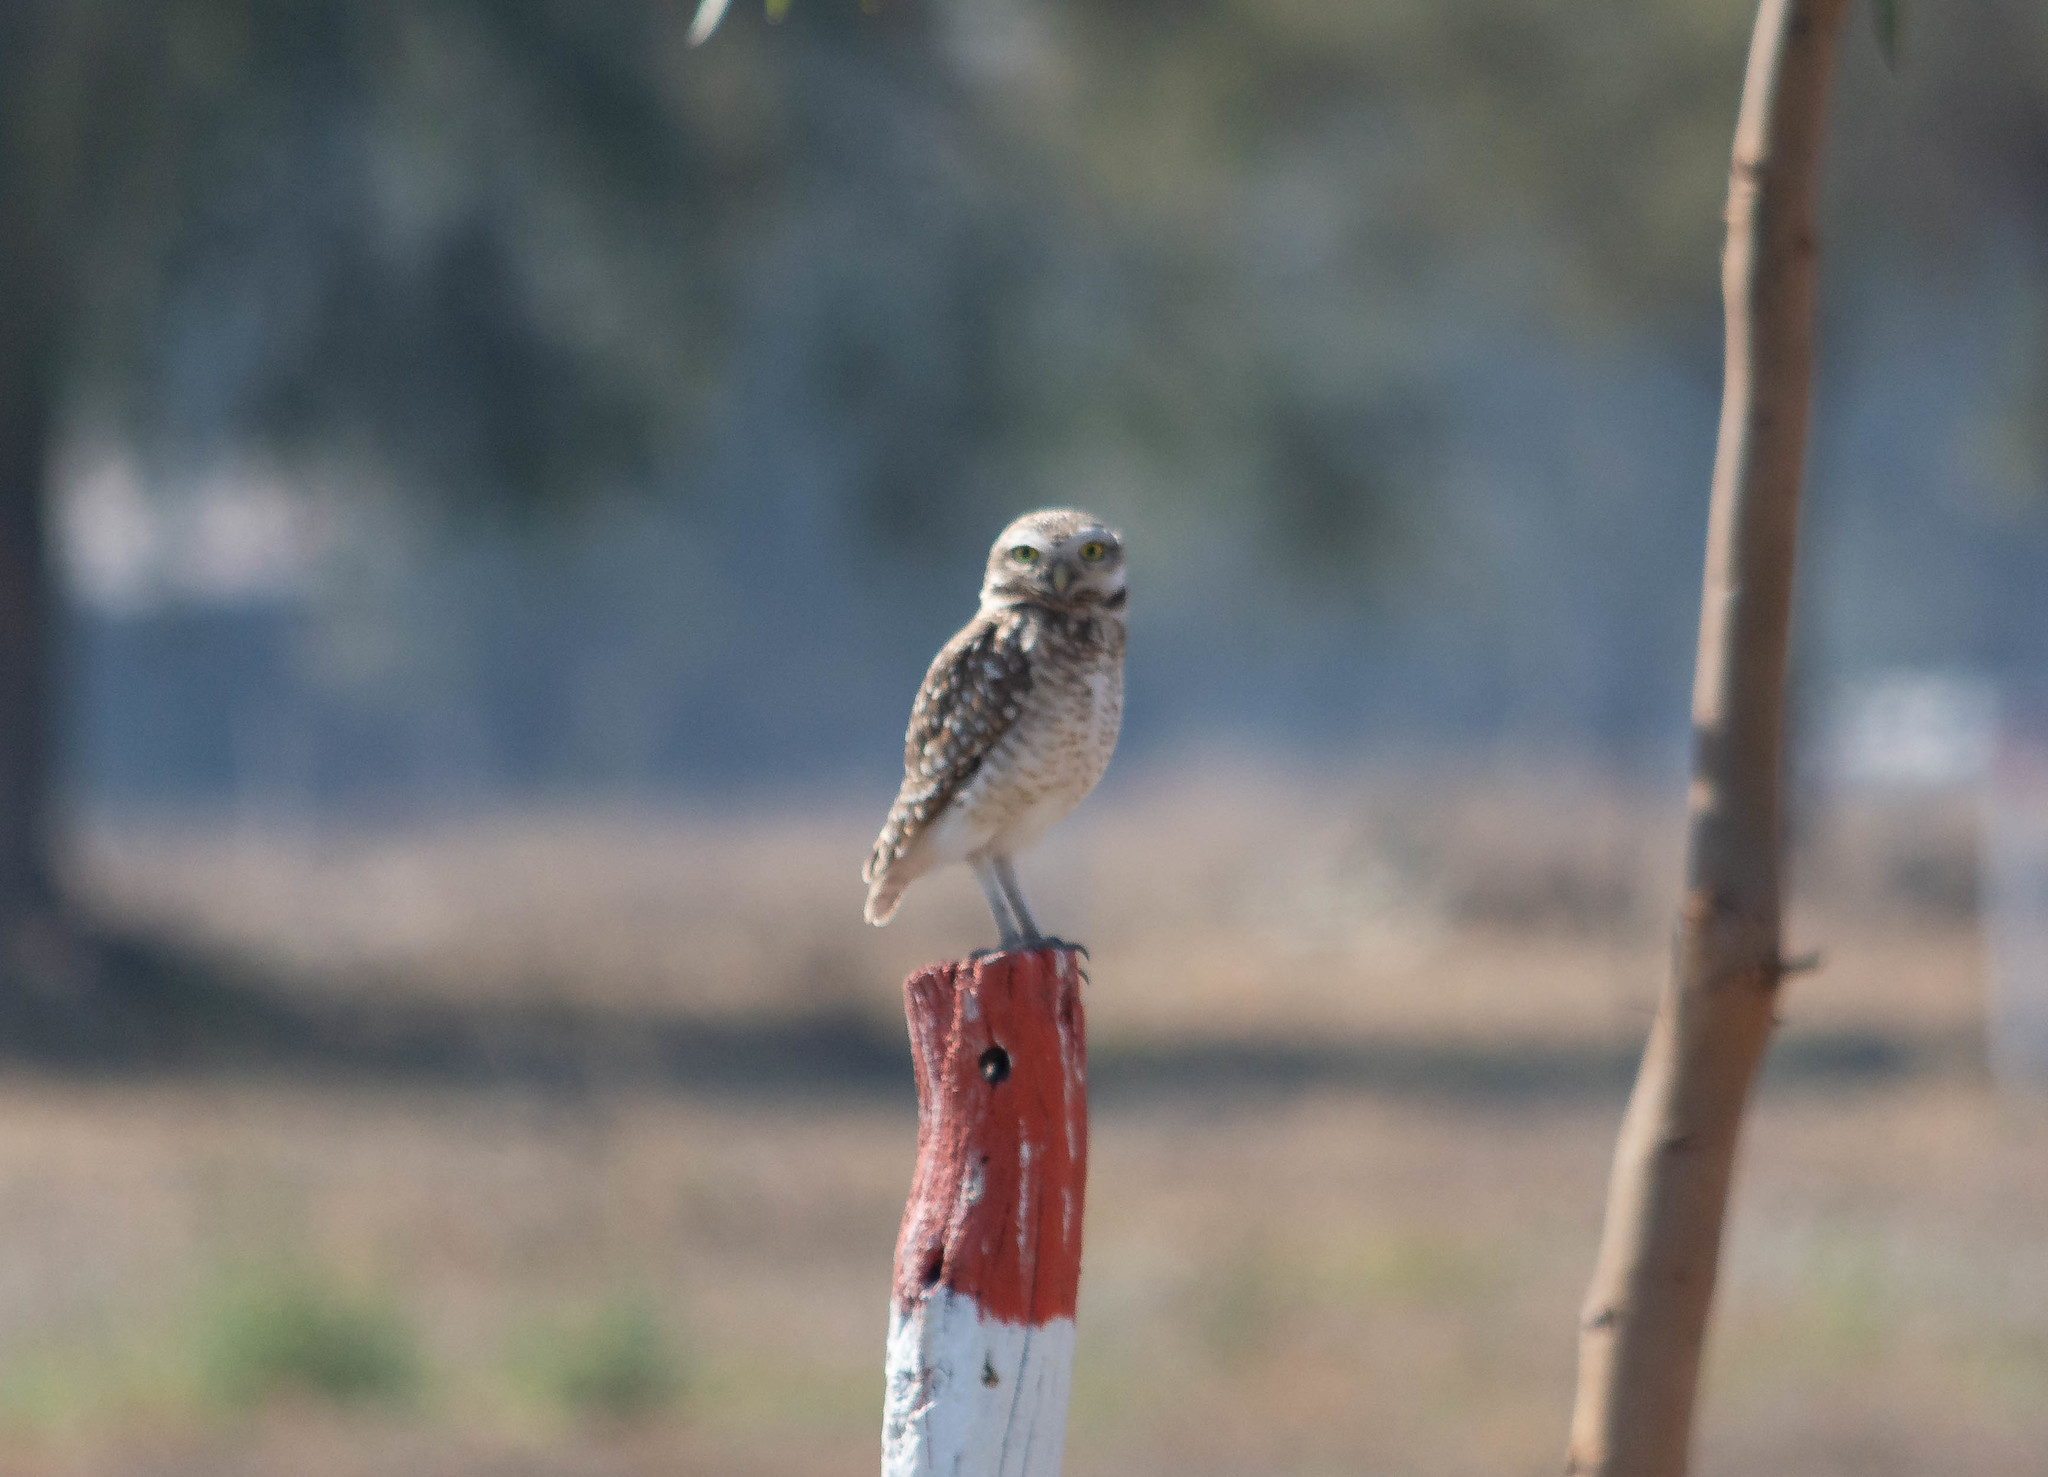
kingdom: Animalia
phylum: Chordata
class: Aves
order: Strigiformes
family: Strigidae
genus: Athene
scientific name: Athene cunicularia
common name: Burrowing owl
